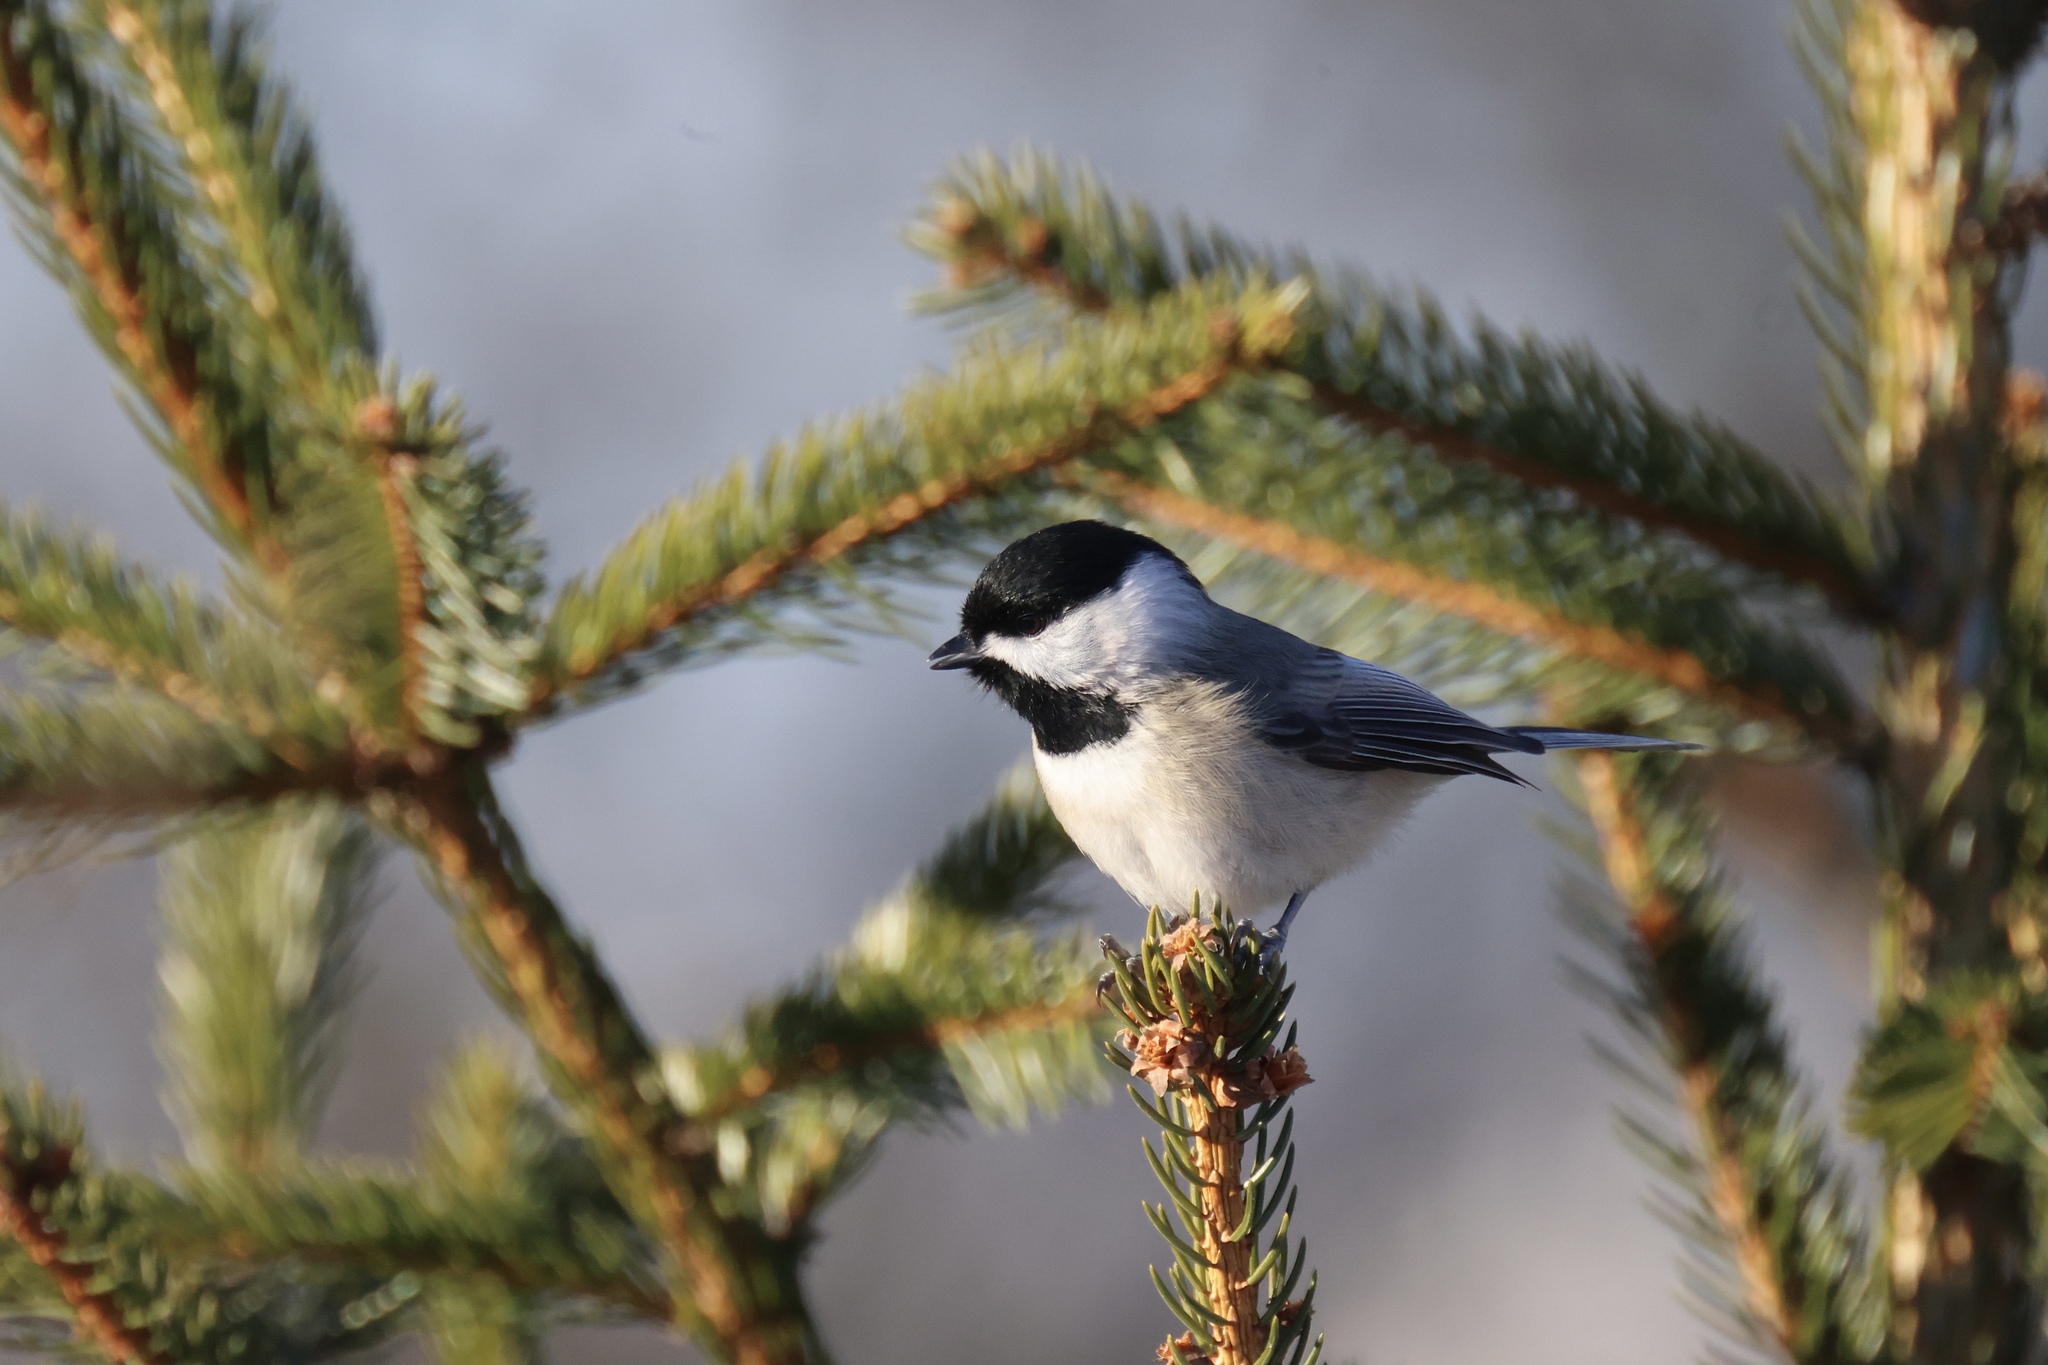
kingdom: Animalia
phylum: Chordata
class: Aves
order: Passeriformes
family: Paridae
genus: Poecile
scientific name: Poecile carolinensis
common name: Carolina chickadee
